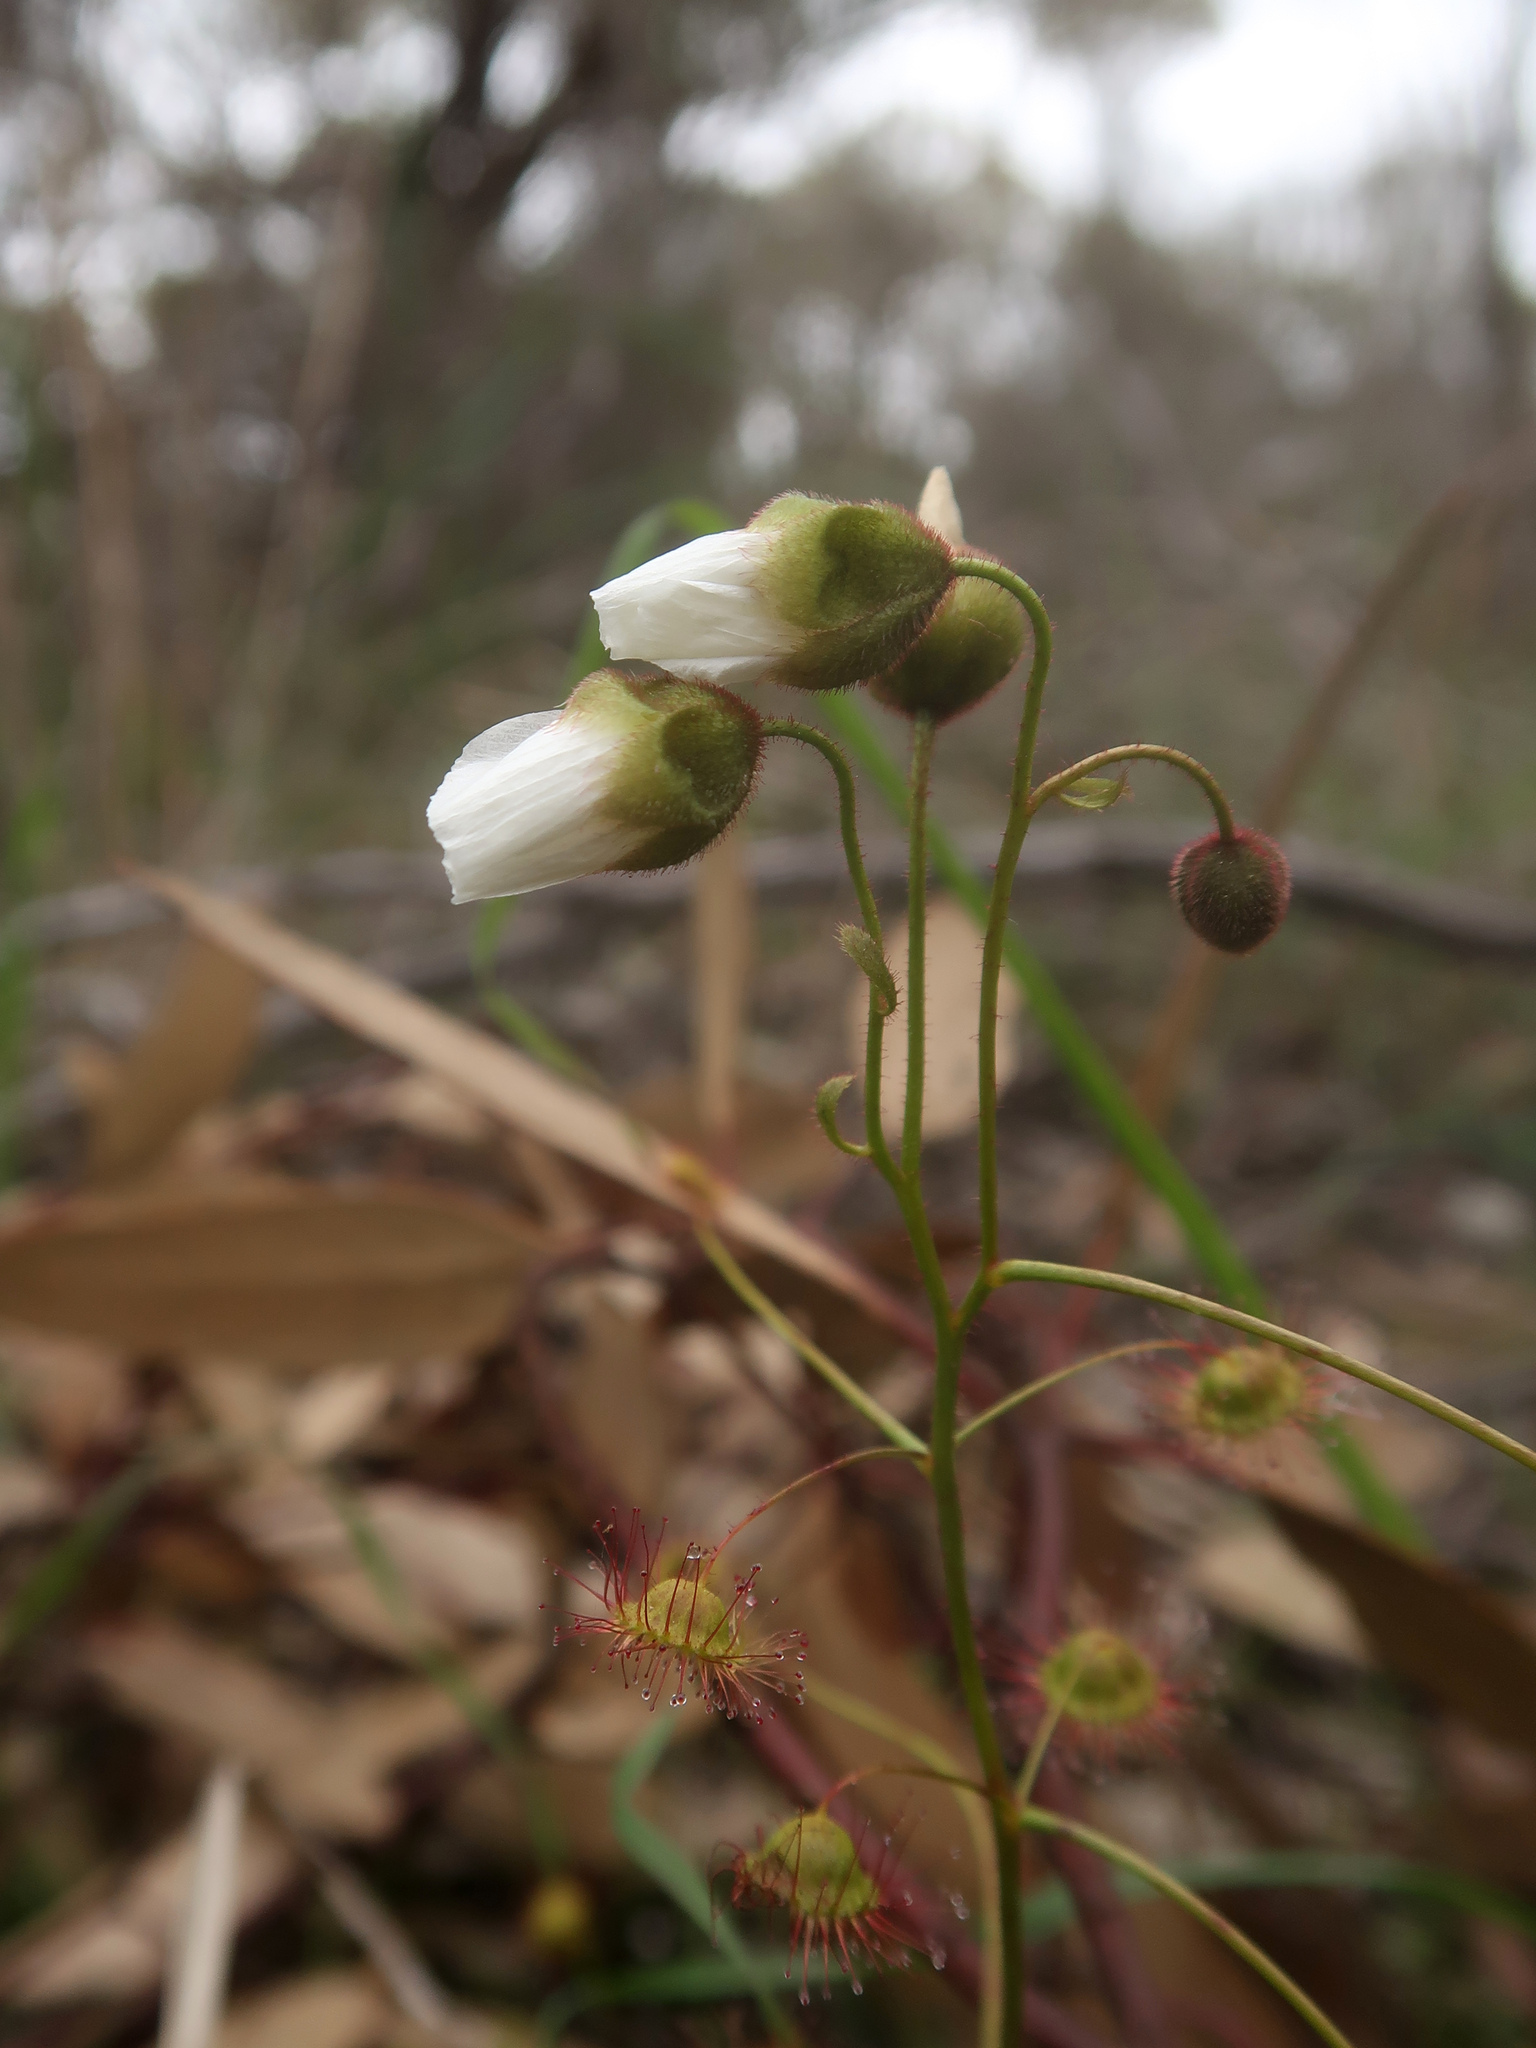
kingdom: Plantae
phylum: Tracheophyta
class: Magnoliopsida
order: Caryophyllales
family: Droseraceae
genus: Drosera
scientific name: Drosera planchonii
